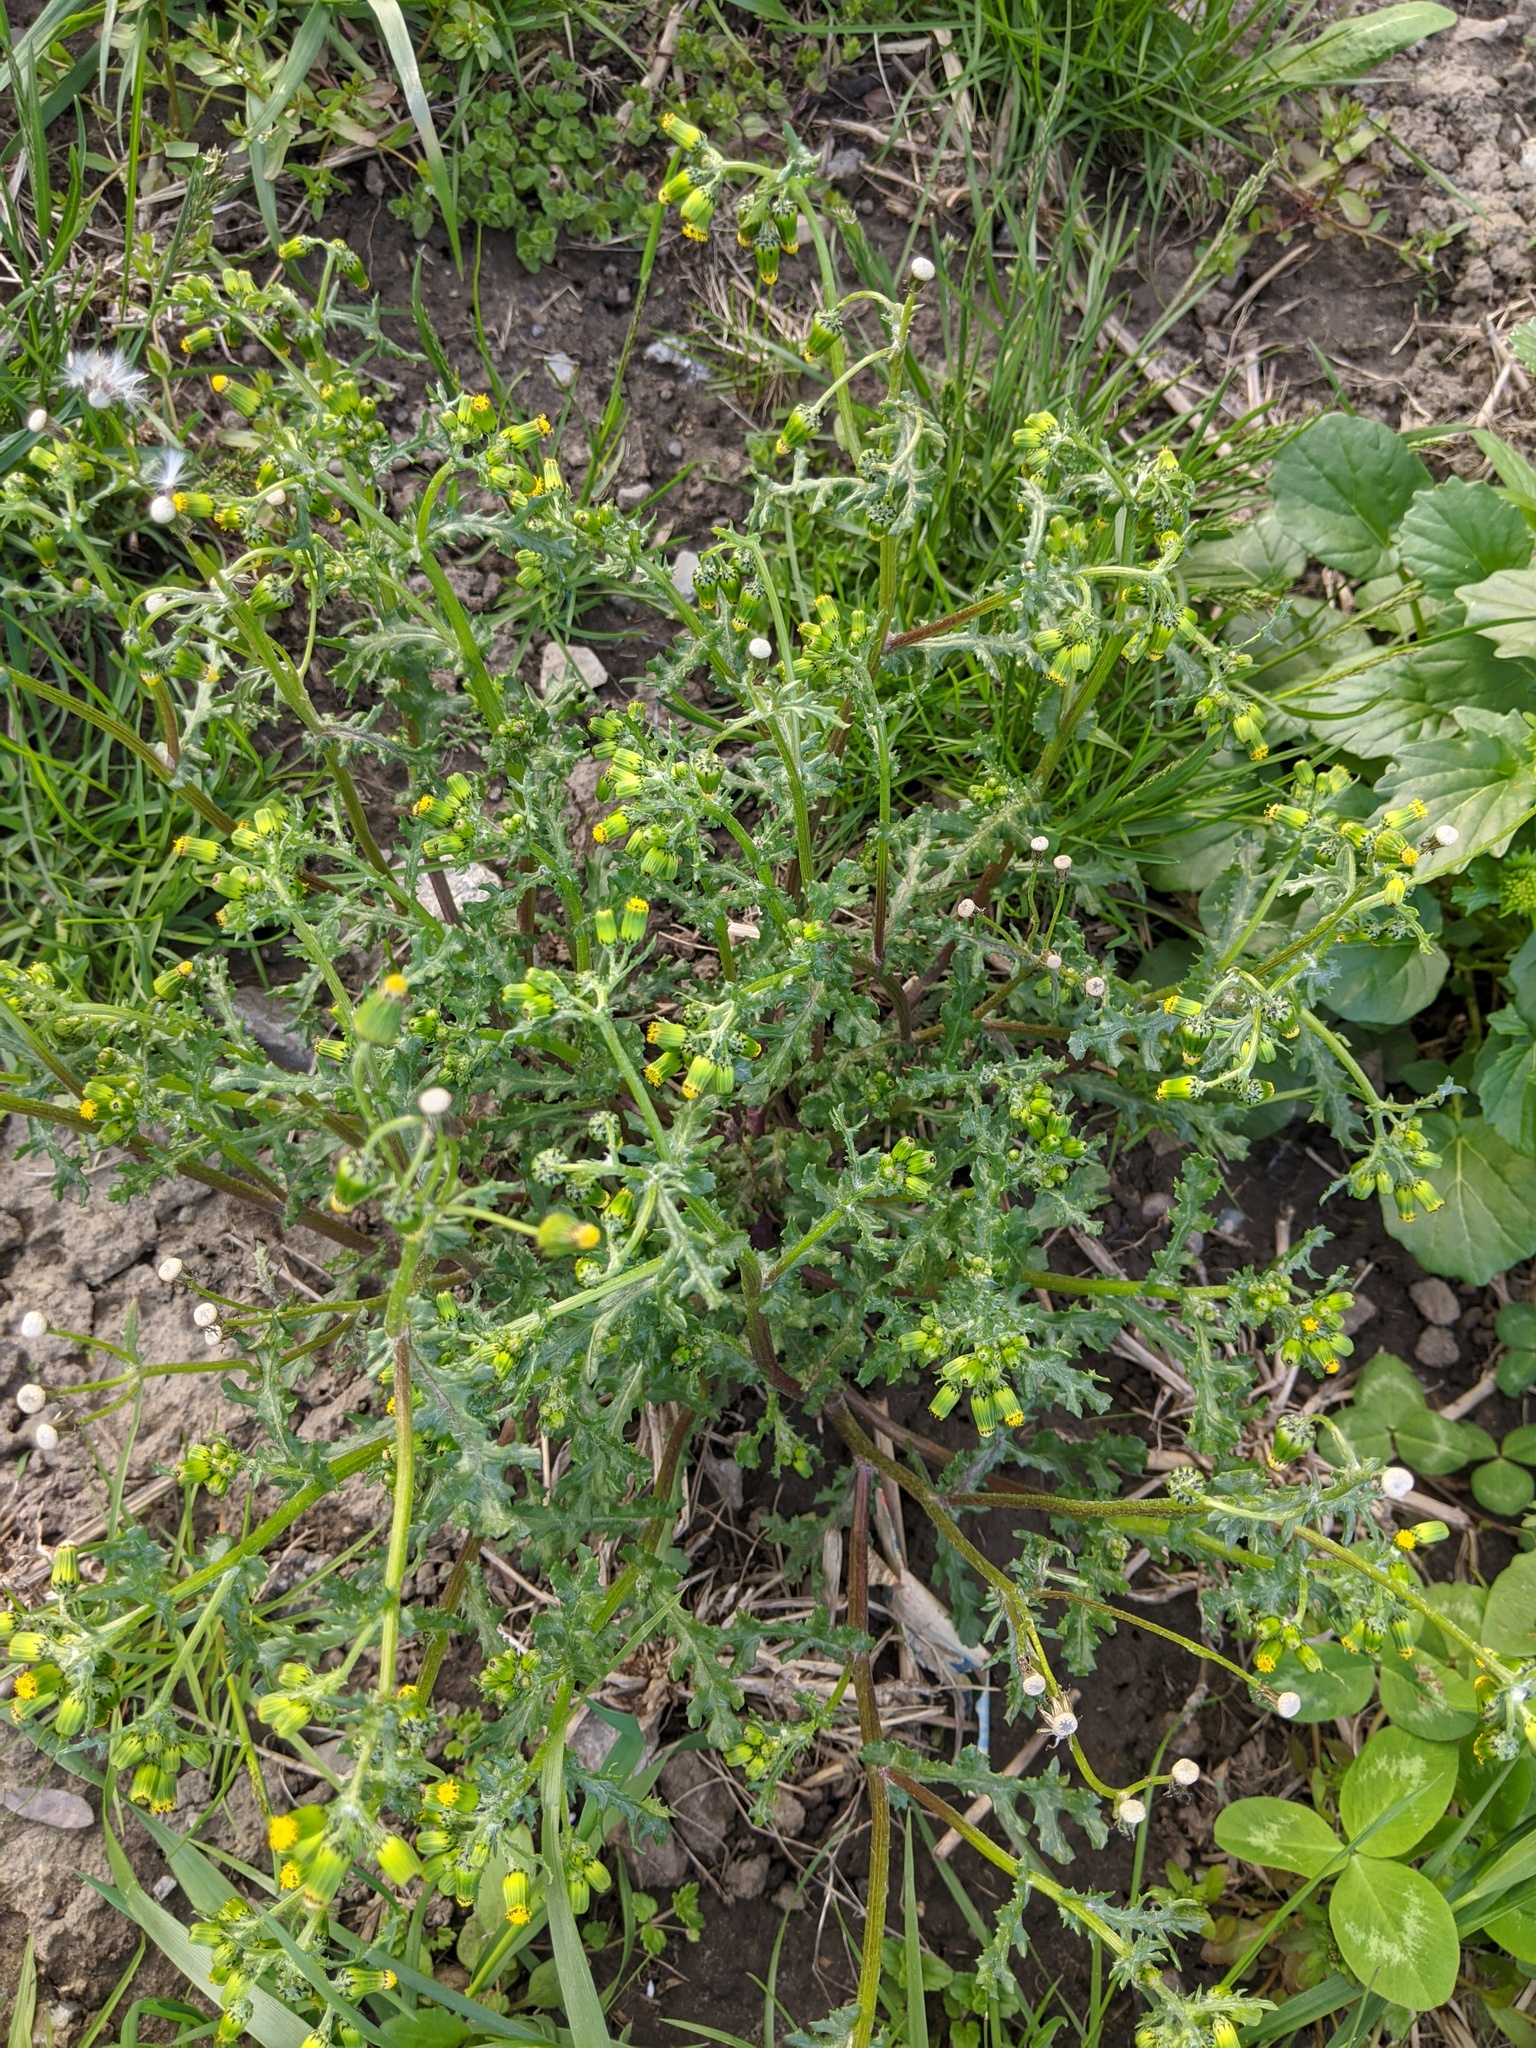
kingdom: Plantae
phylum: Tracheophyta
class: Magnoliopsida
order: Asterales
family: Asteraceae
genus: Senecio
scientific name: Senecio vulgaris
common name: Old-man-in-the-spring
